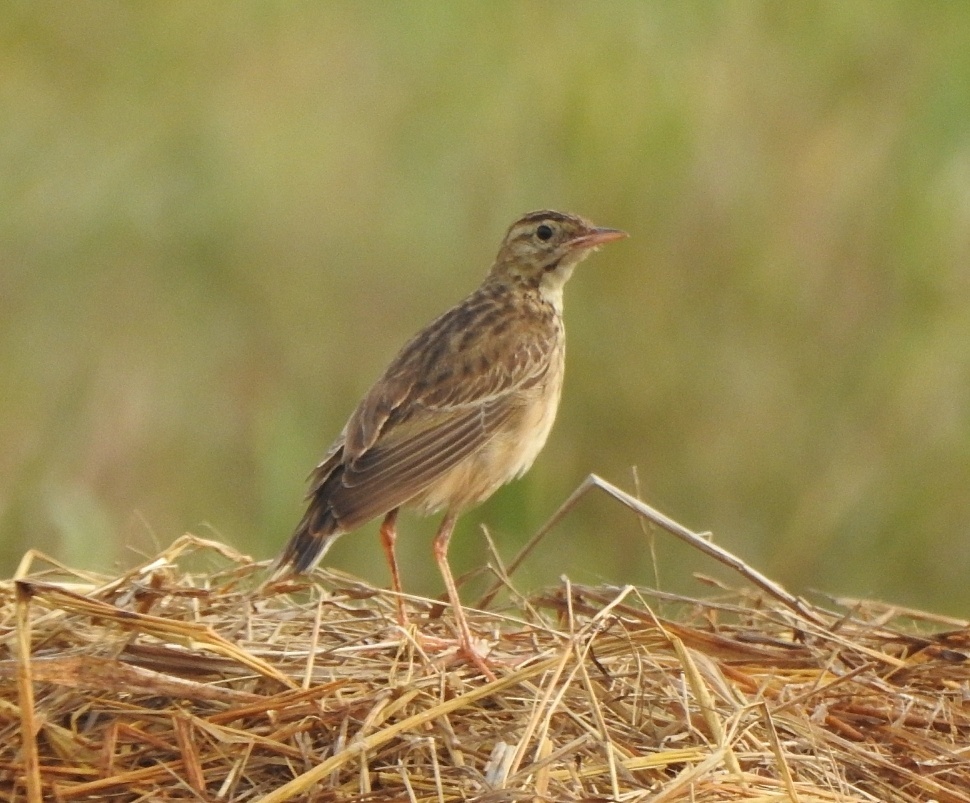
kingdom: Animalia
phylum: Chordata
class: Aves
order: Passeriformes
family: Motacillidae
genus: Anthus
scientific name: Anthus richardi
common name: Richard's pipit
